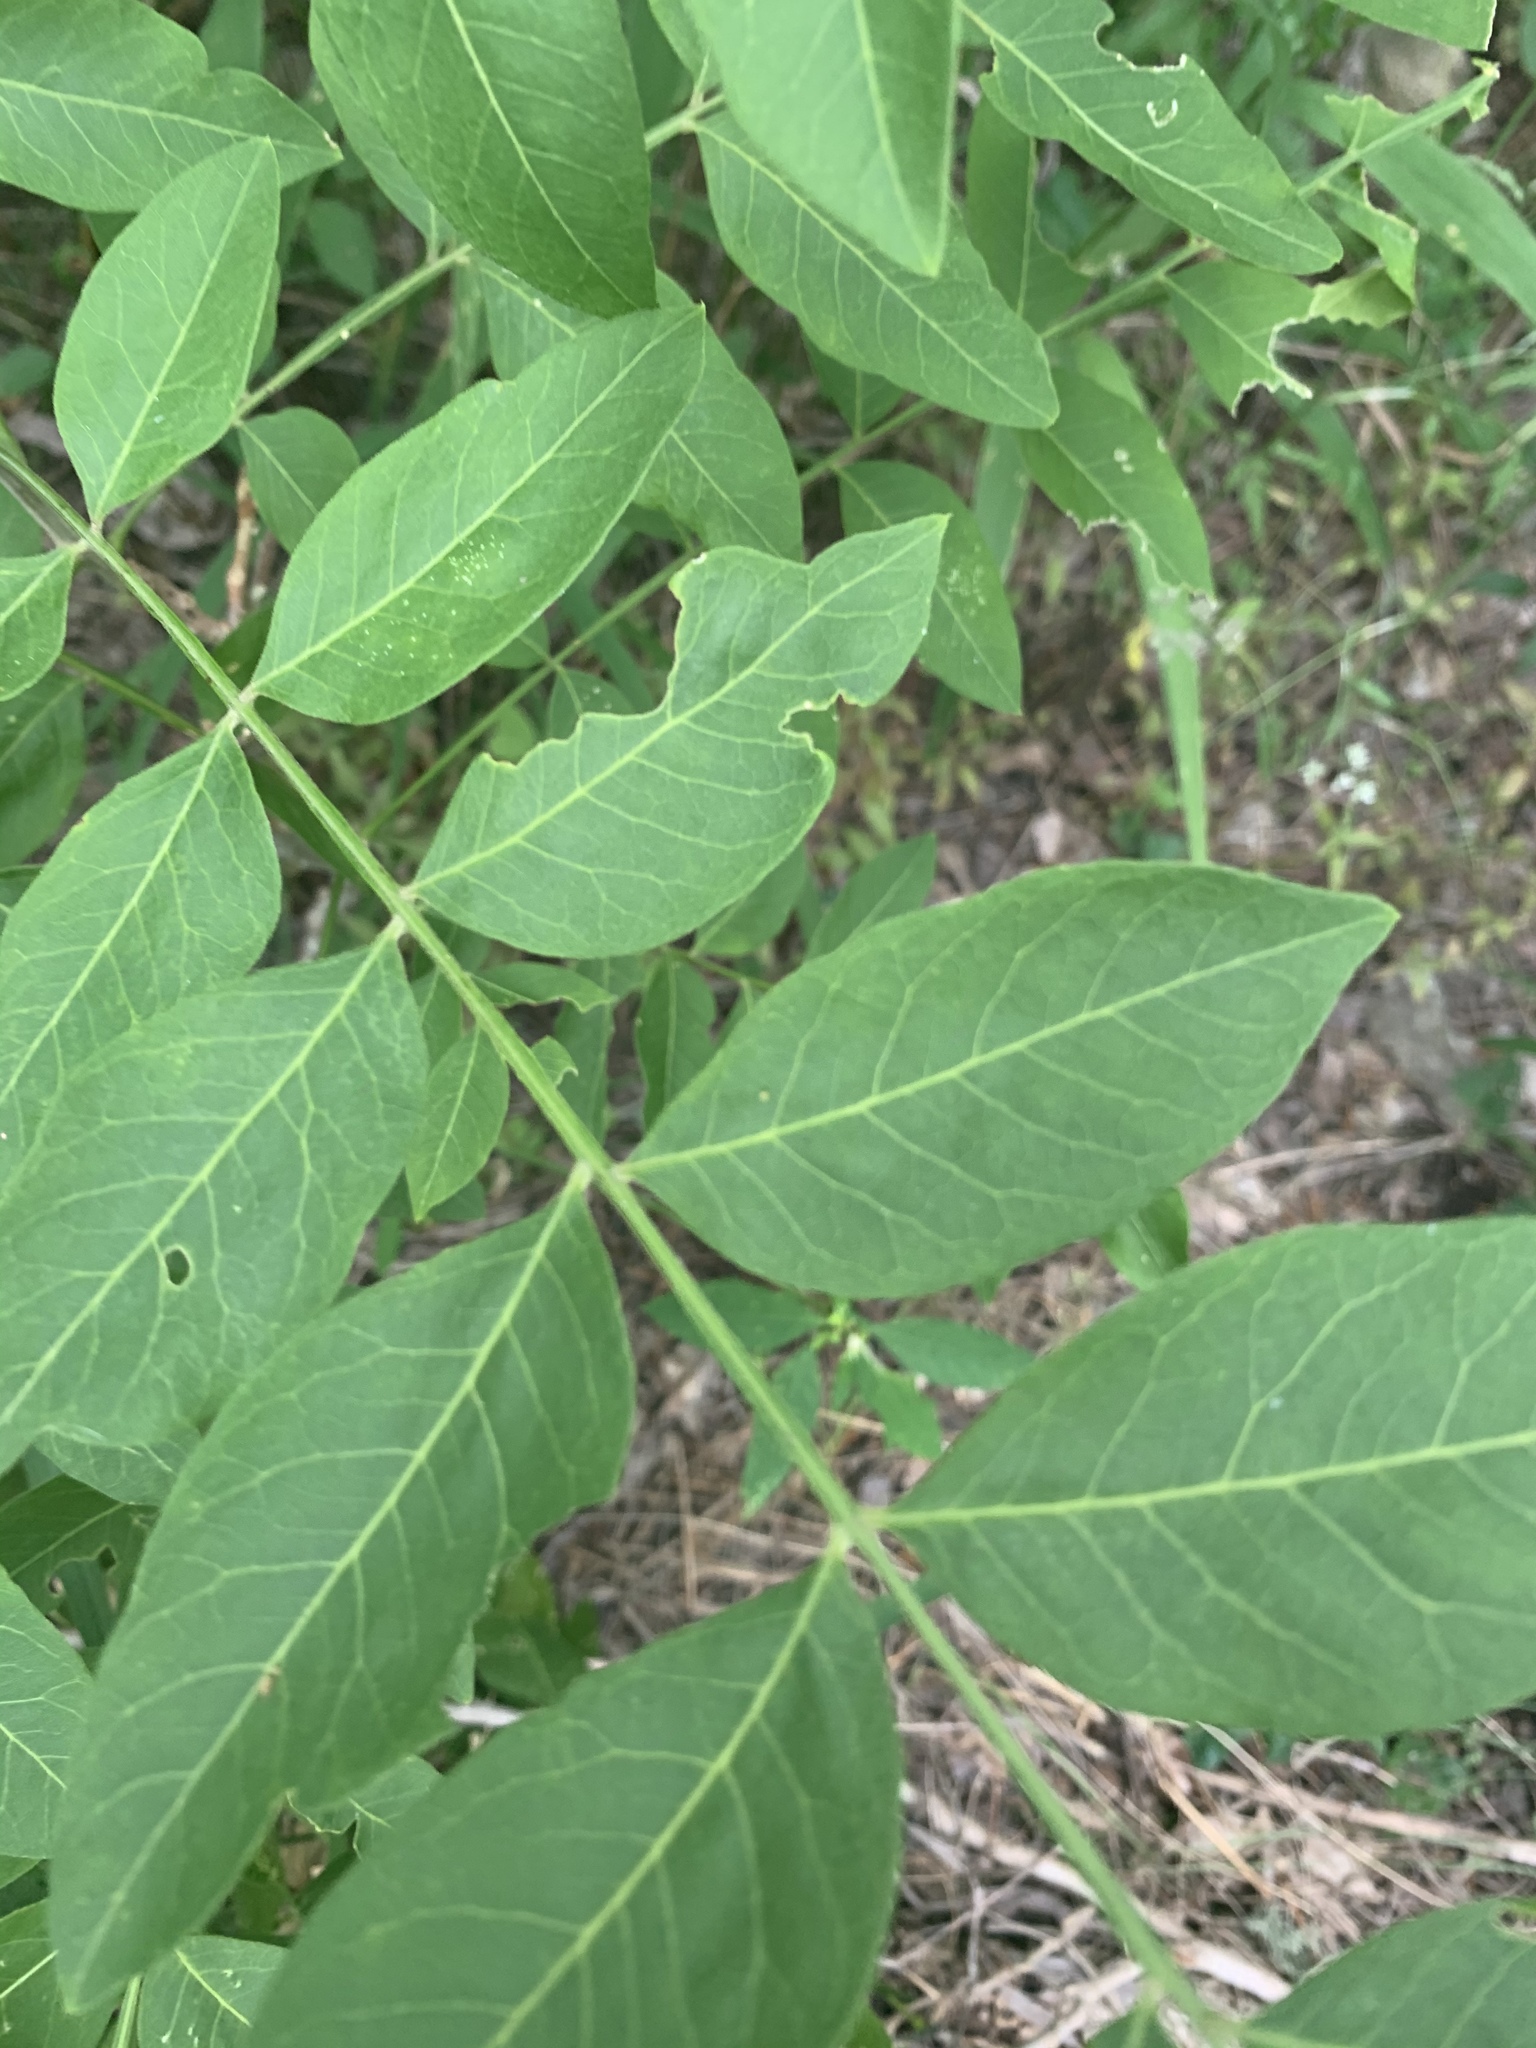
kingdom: Plantae
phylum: Tracheophyta
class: Magnoliopsida
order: Sapindales
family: Sapindaceae
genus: Sapindus
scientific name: Sapindus drummondii
